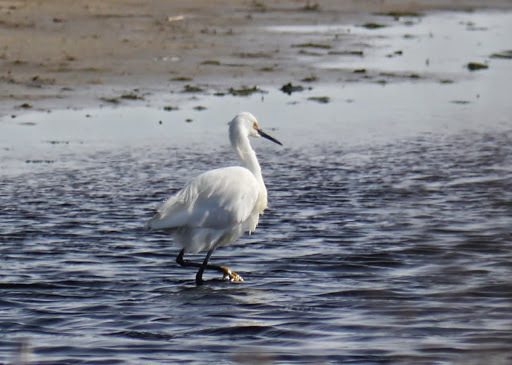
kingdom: Animalia
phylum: Chordata
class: Aves
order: Pelecaniformes
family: Ardeidae
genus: Egretta
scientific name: Egretta thula
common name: Snowy egret
